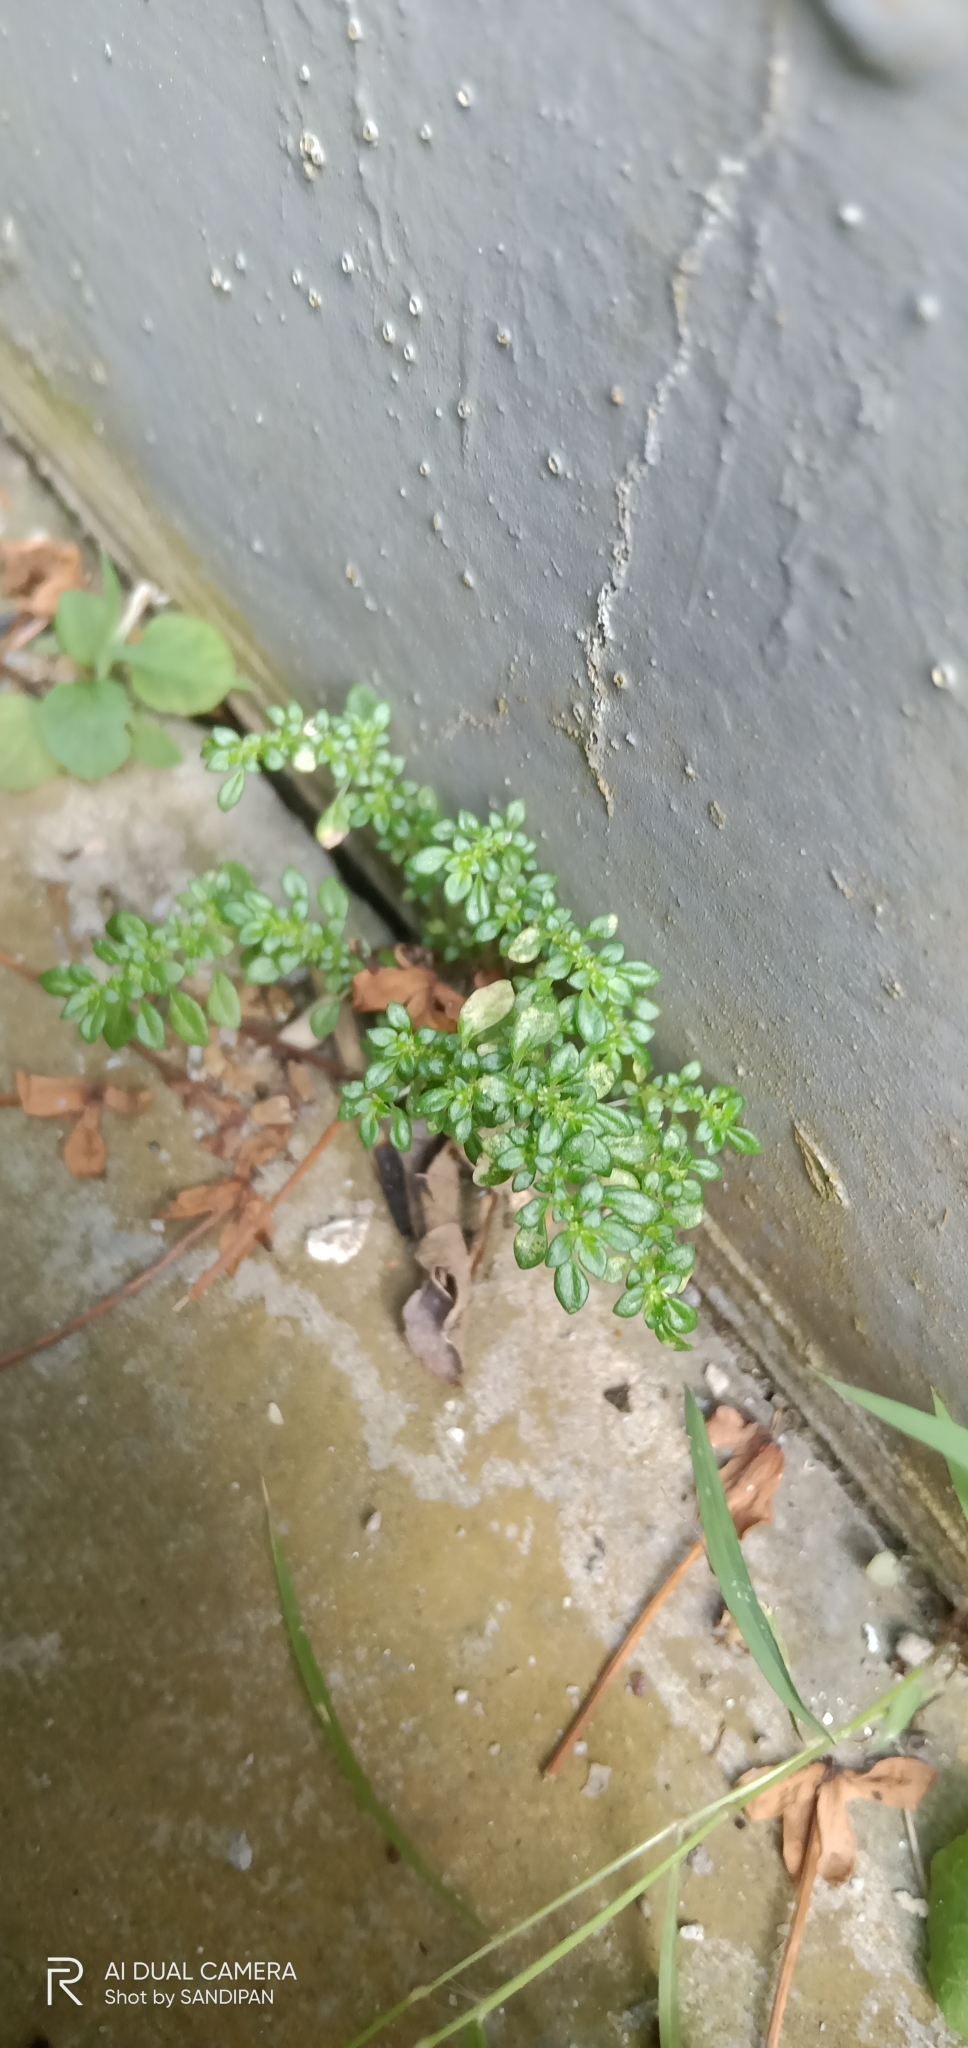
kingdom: Plantae
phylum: Tracheophyta
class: Magnoliopsida
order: Rosales
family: Urticaceae
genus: Pilea
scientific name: Pilea microphylla
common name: Artillery-plant
